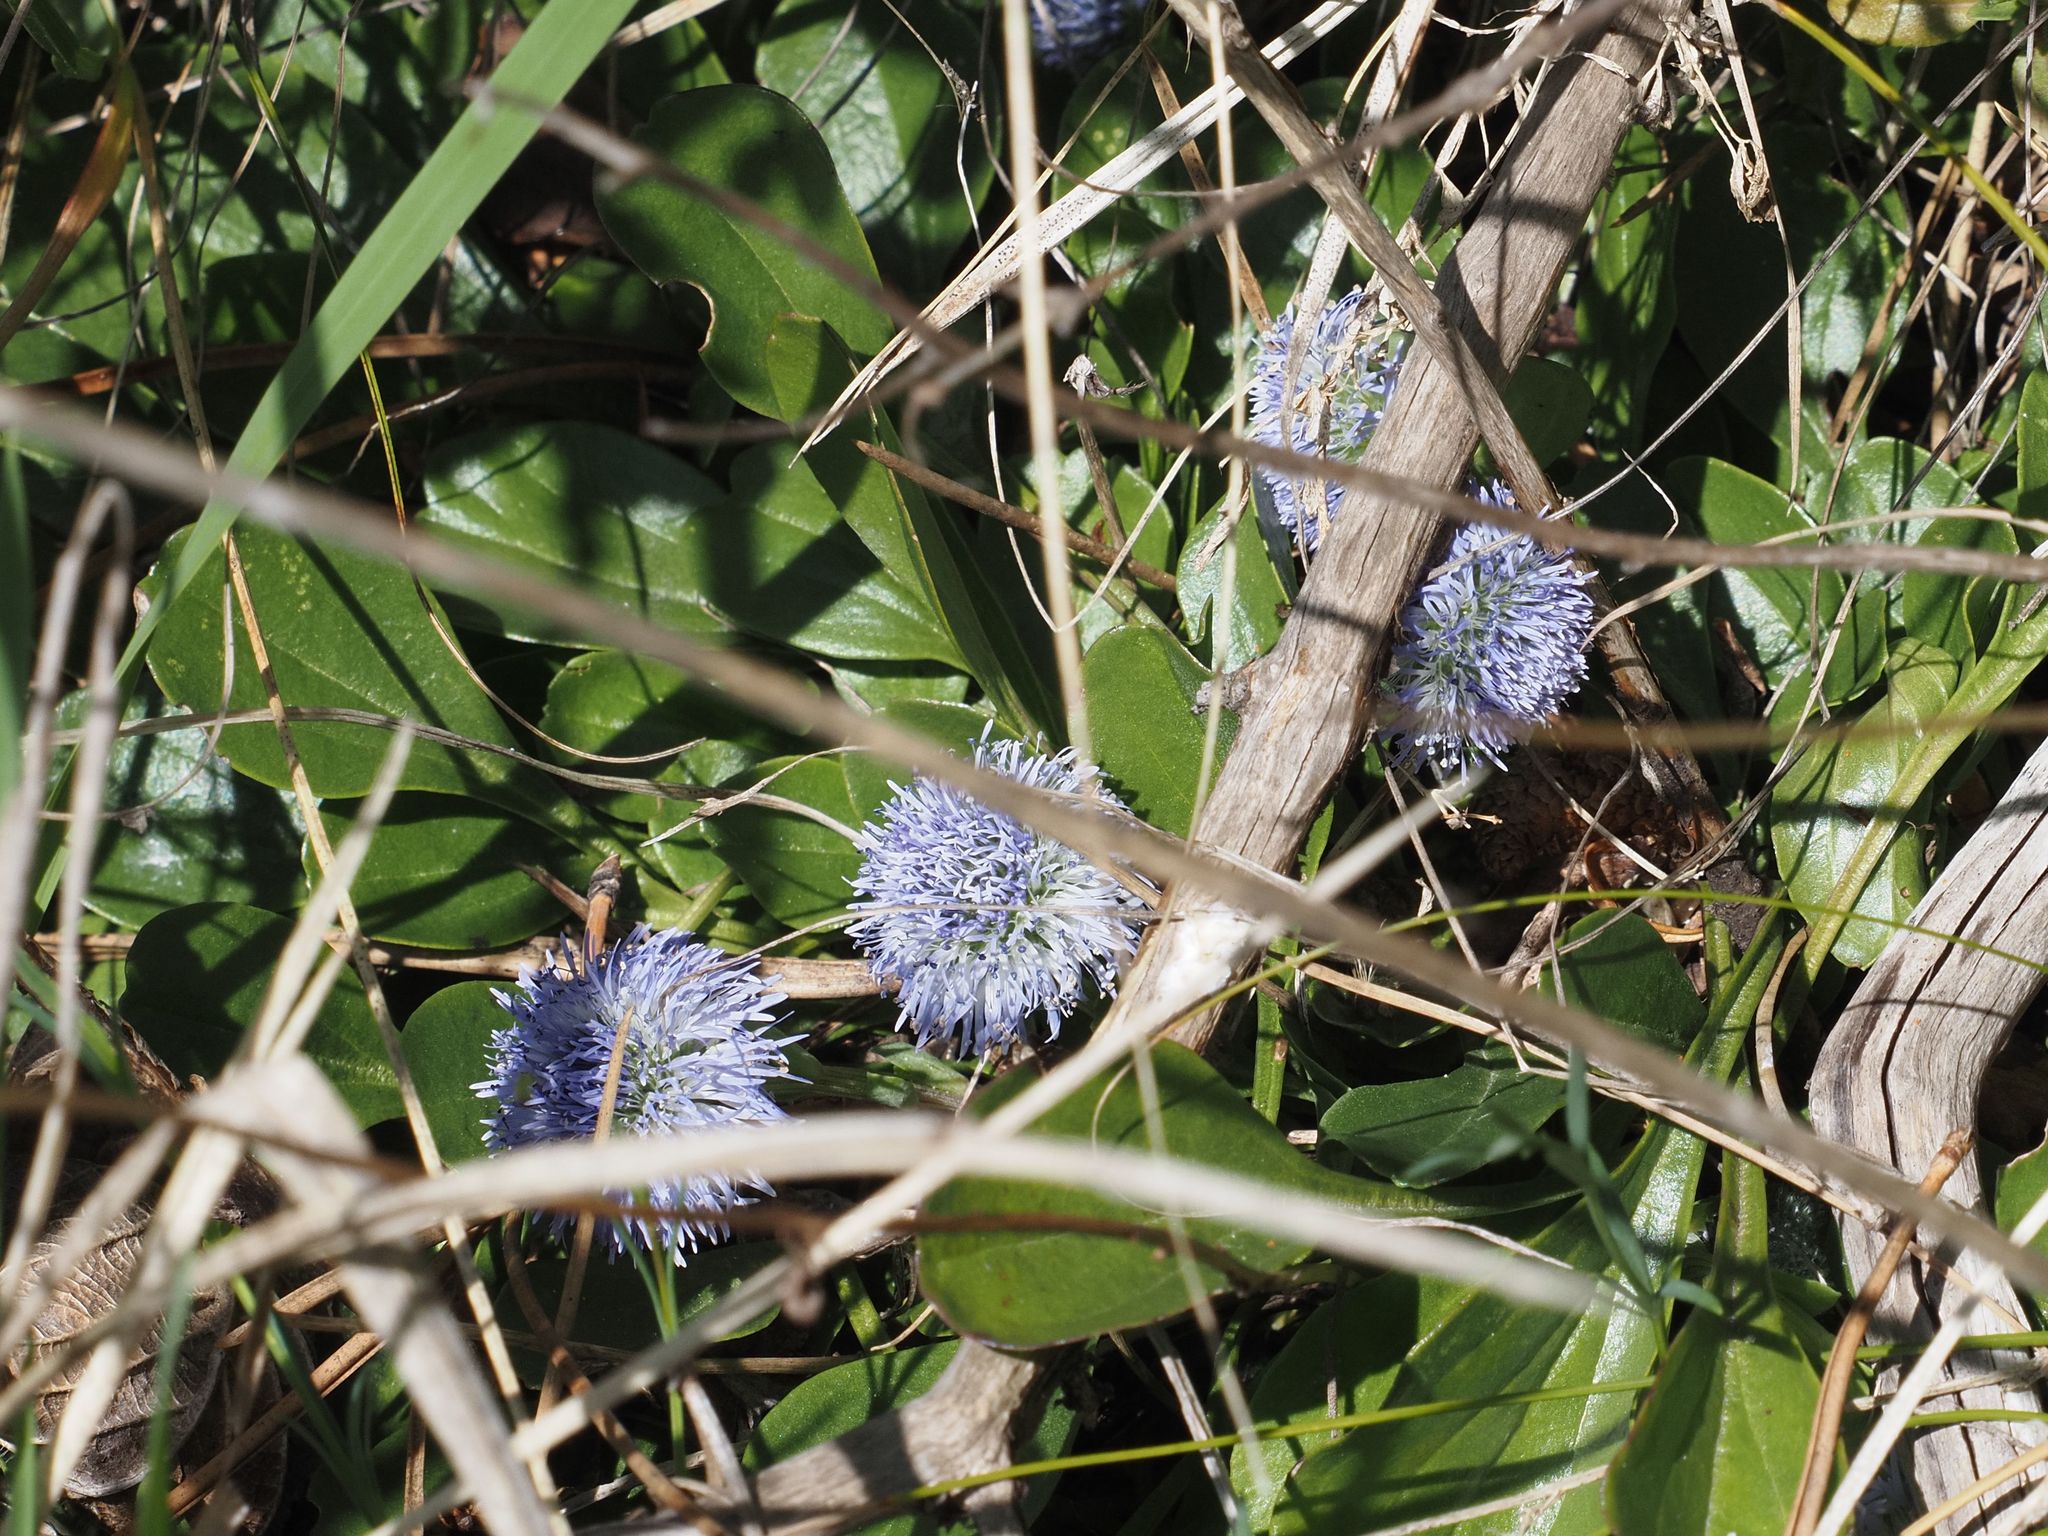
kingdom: Plantae
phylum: Tracheophyta
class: Magnoliopsida
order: Lamiales
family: Plantaginaceae
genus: Globularia
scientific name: Globularia bisnagarica
